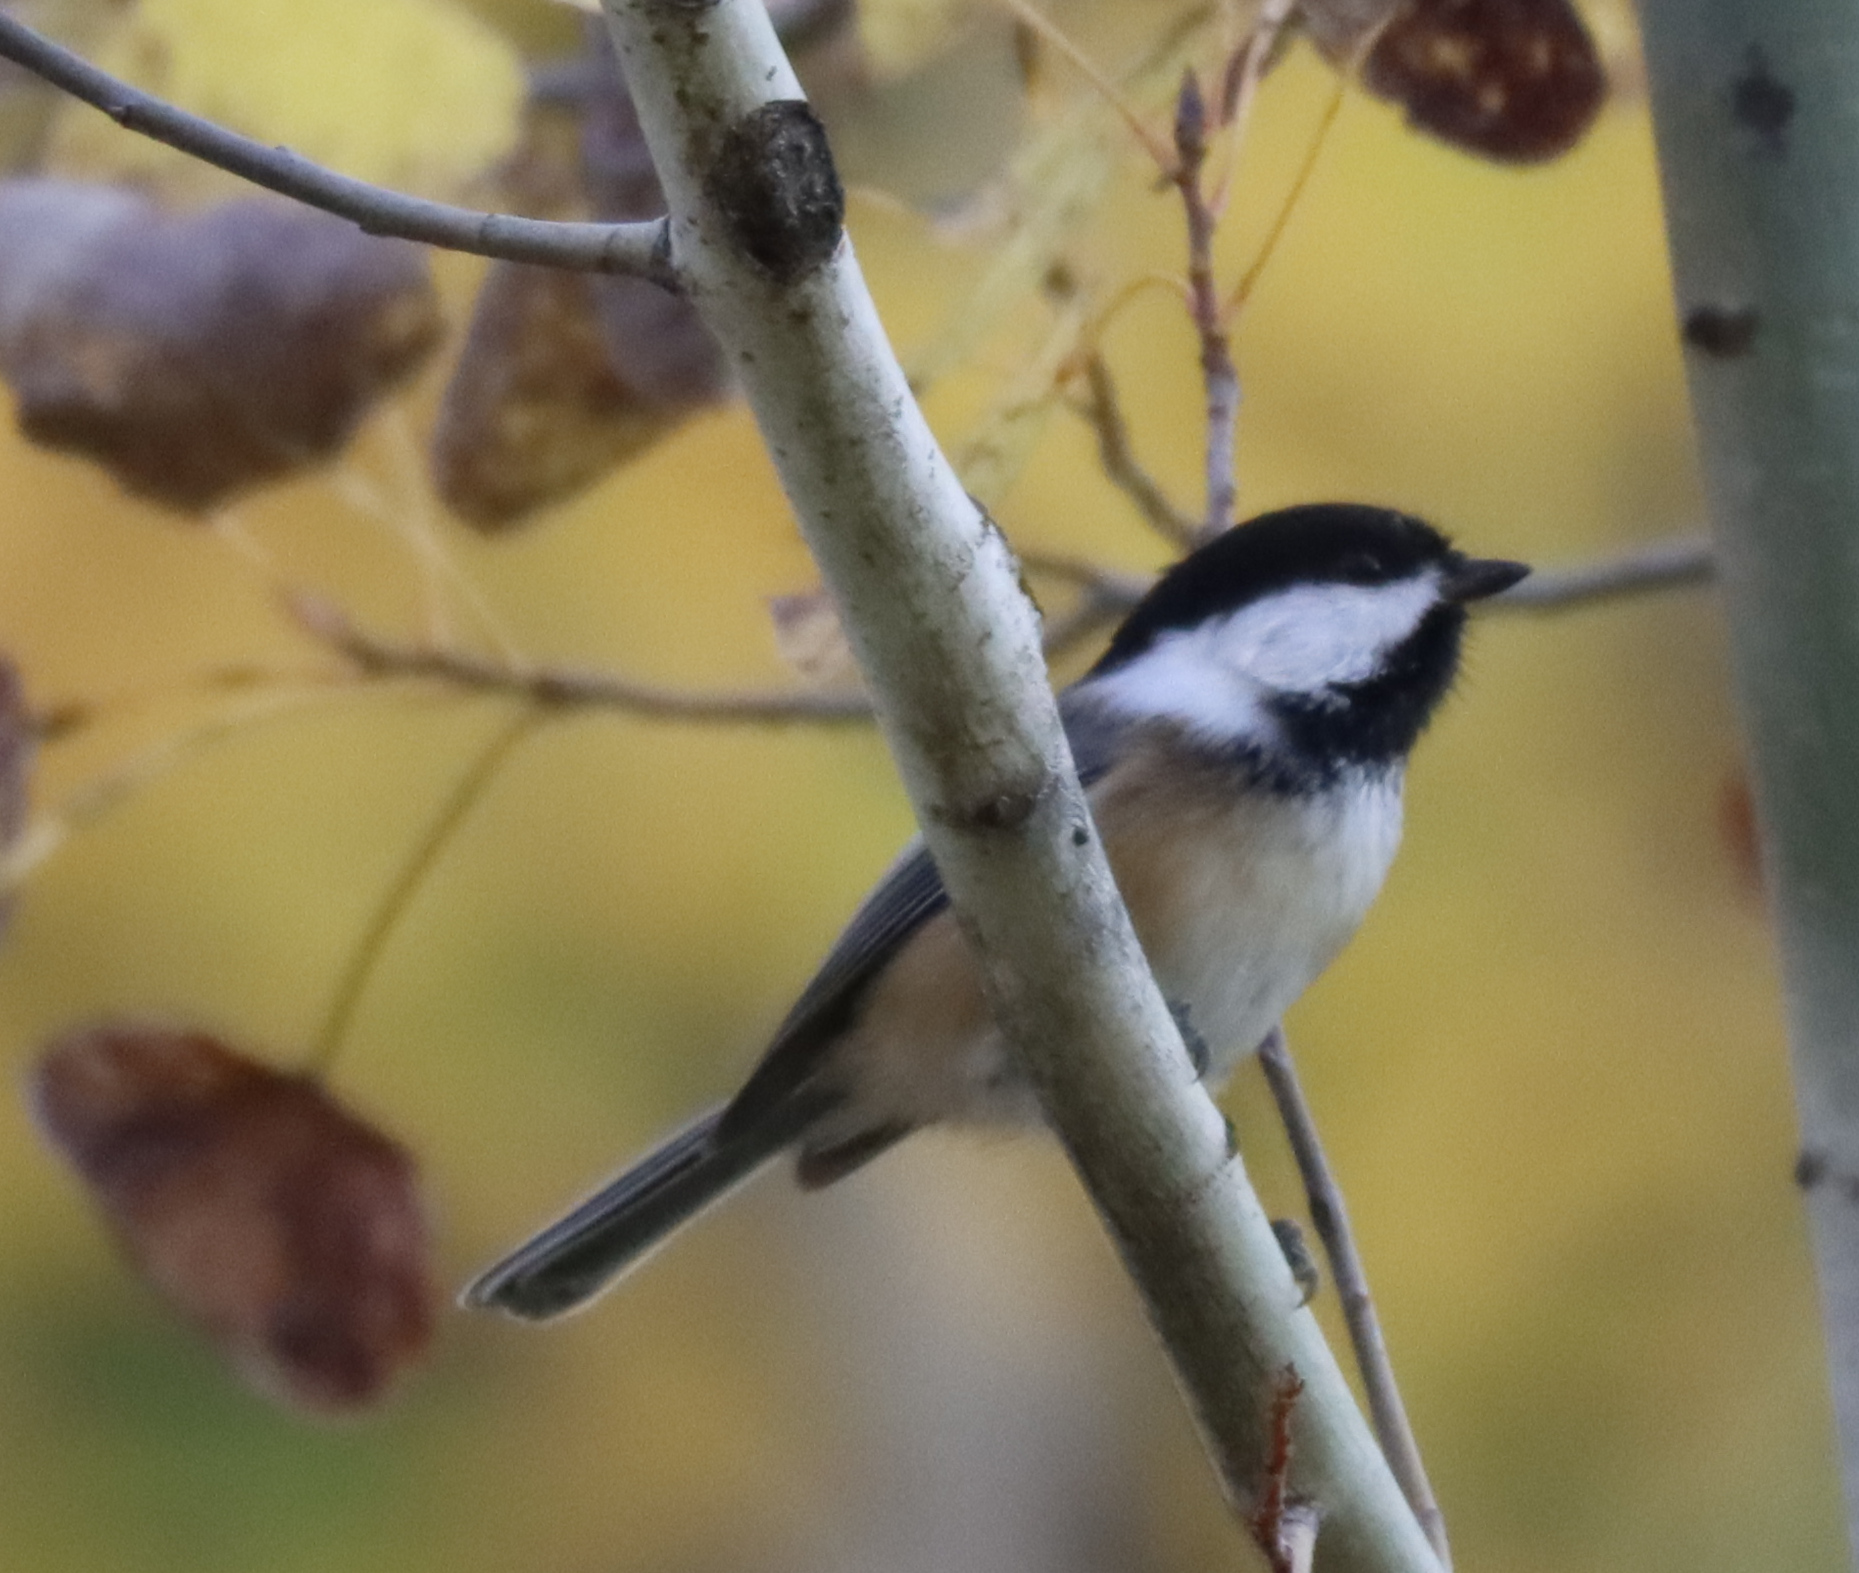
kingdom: Animalia
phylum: Chordata
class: Aves
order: Passeriformes
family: Paridae
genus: Poecile
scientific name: Poecile atricapillus
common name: Black-capped chickadee
